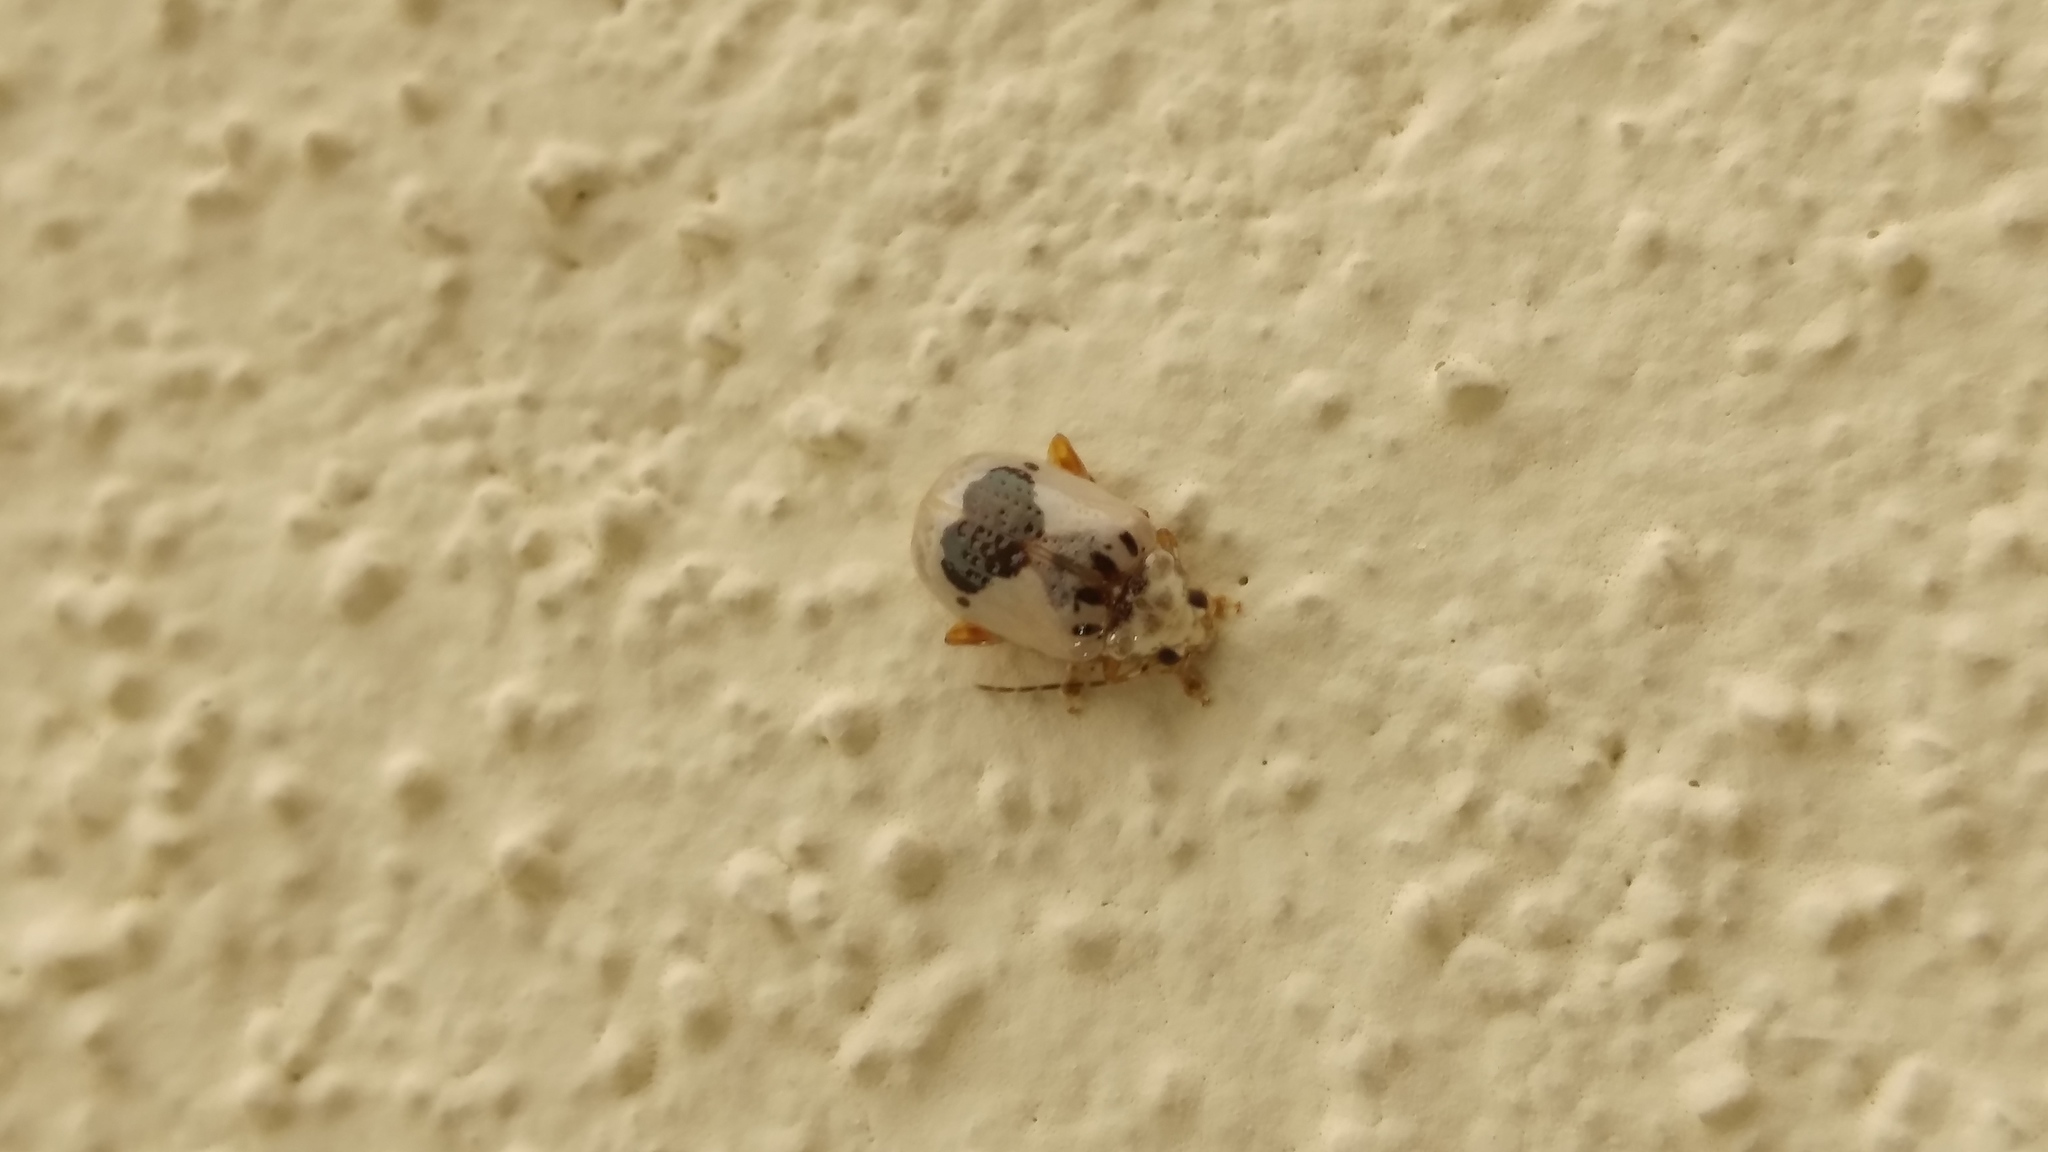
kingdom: Animalia
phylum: Arthropoda
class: Insecta
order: Coleoptera
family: Chrysomelidae
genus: Acrocyum
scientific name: Acrocyum
